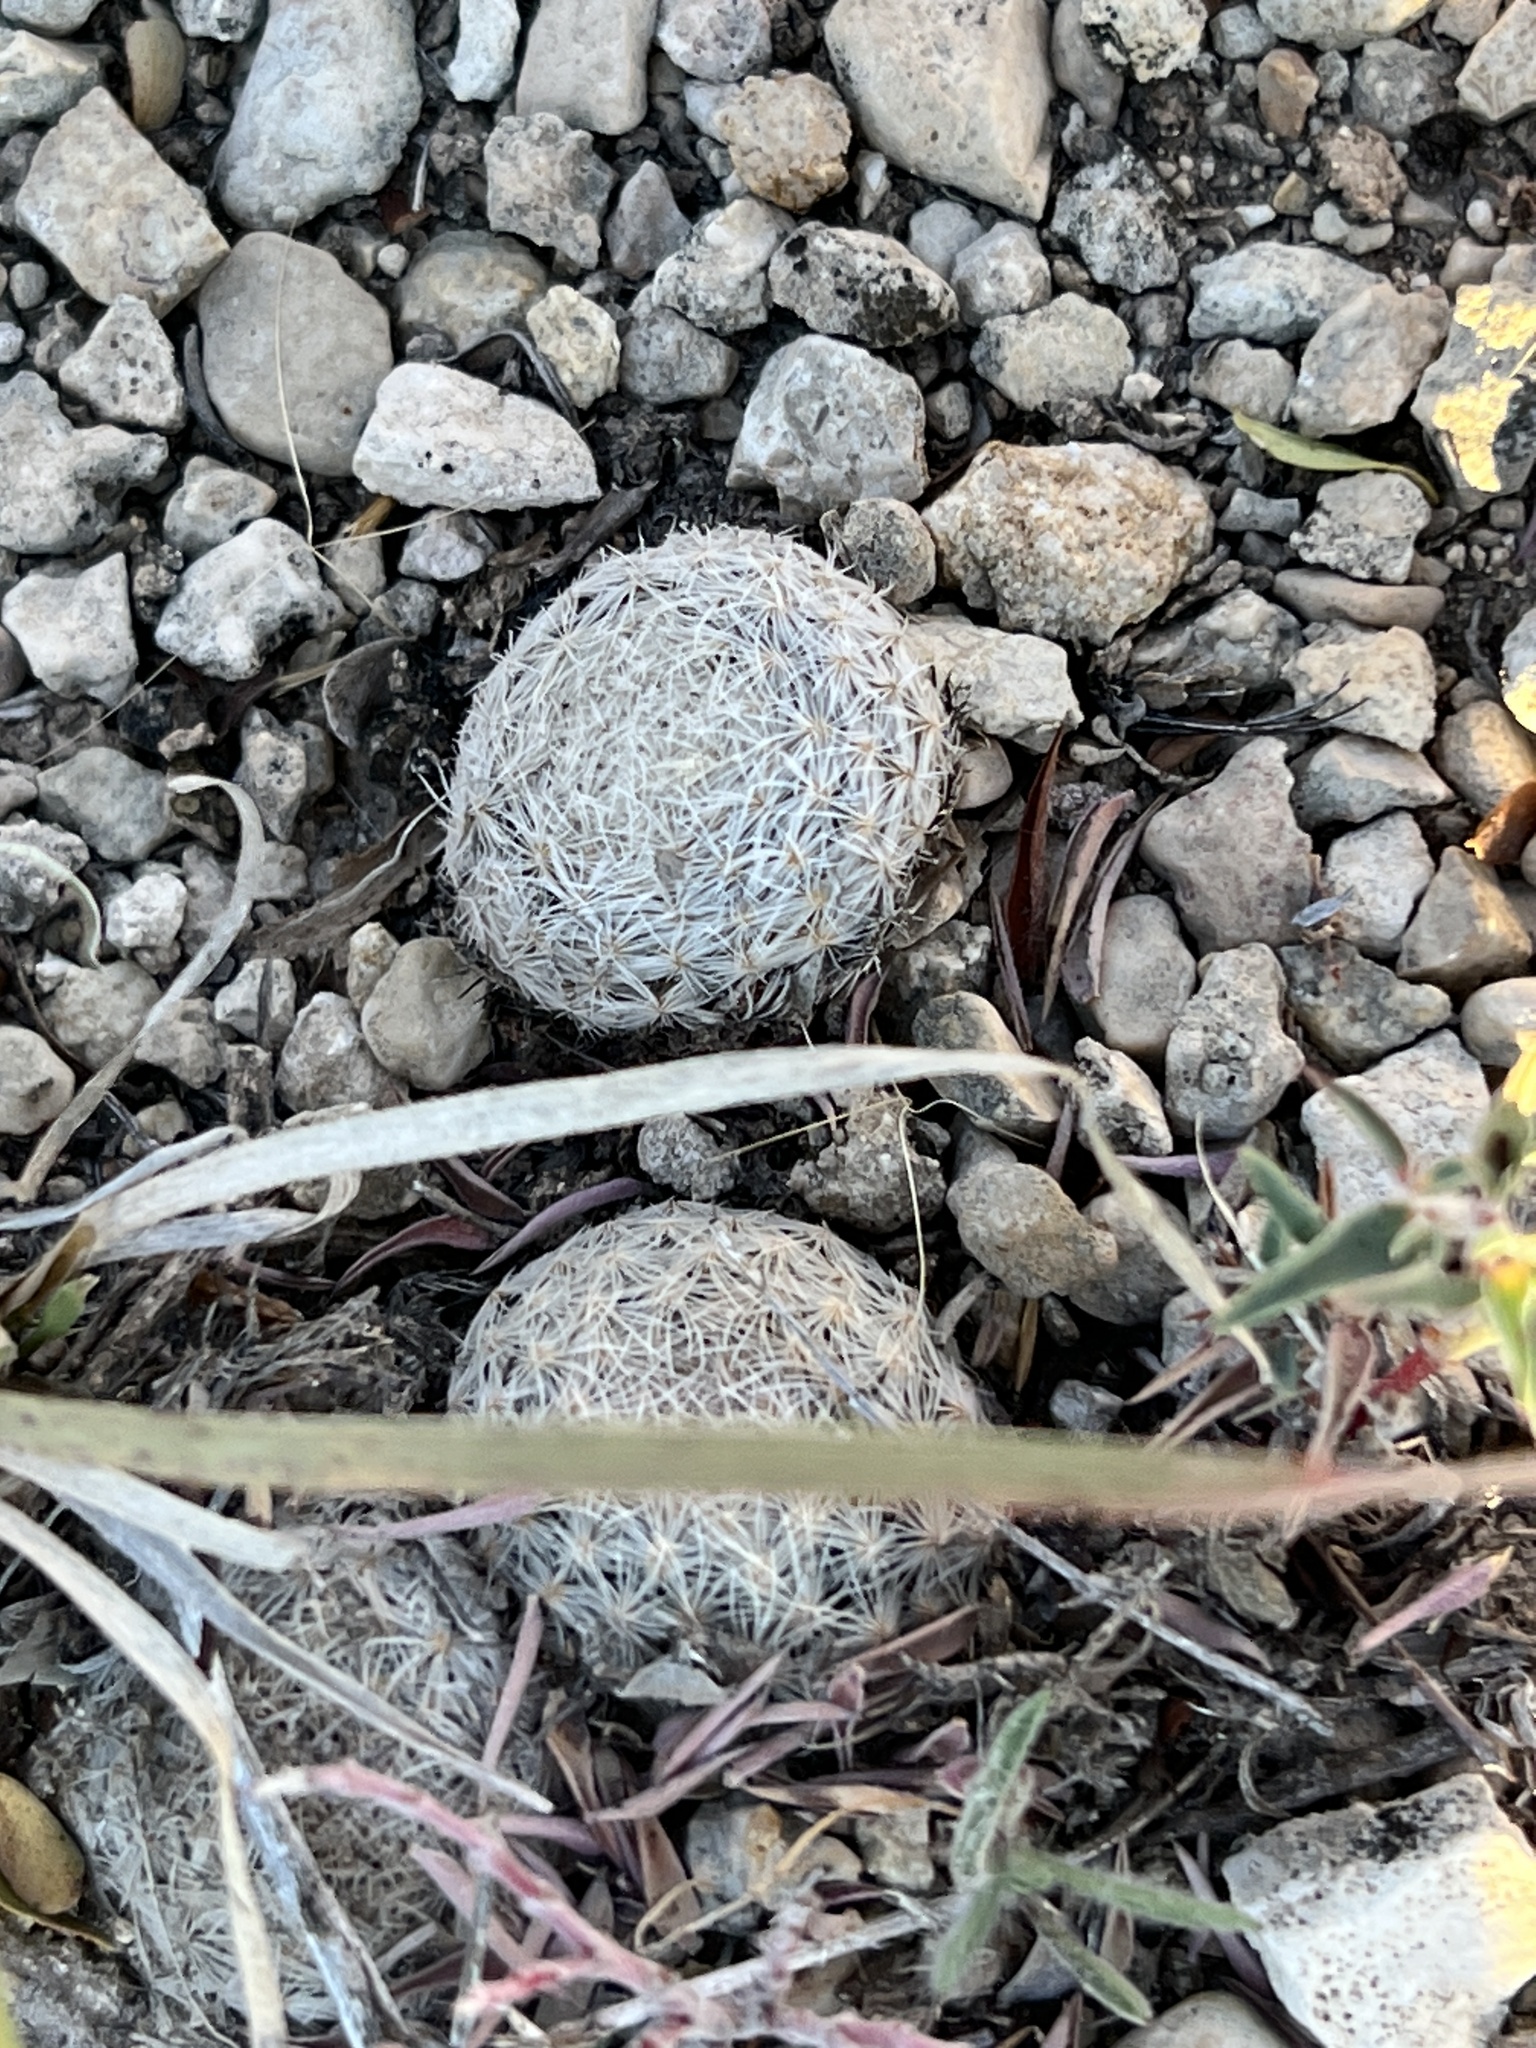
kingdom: Plantae
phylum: Tracheophyta
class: Magnoliopsida
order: Caryophyllales
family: Cactaceae
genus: Mammillaria
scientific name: Mammillaria lasiacantha
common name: Lace-spine nipple cactus
